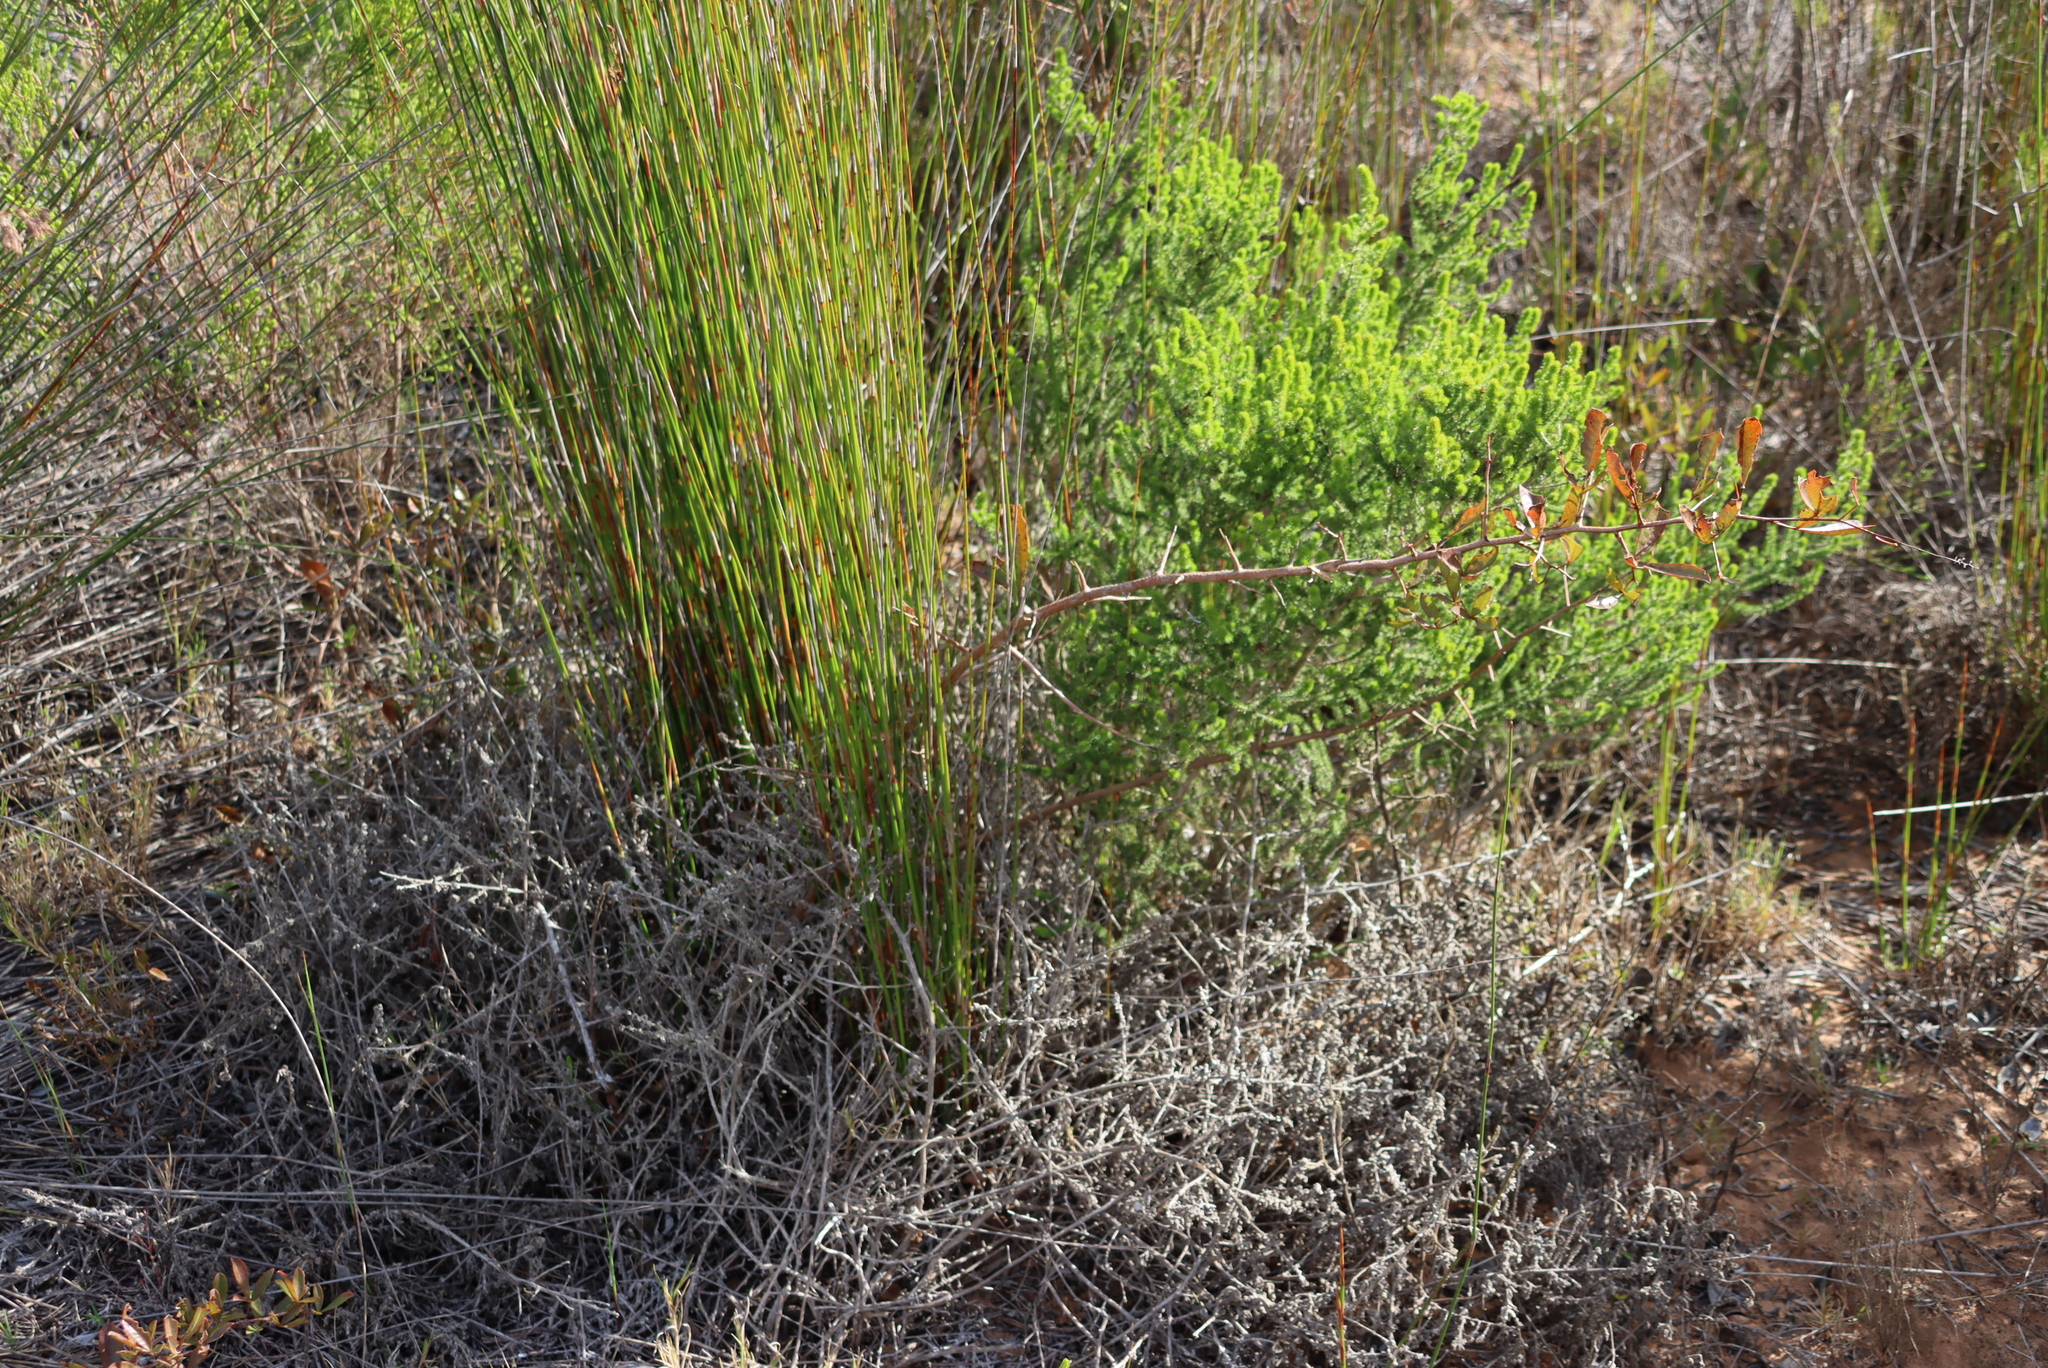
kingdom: Plantae
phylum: Tracheophyta
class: Magnoliopsida
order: Sapindales
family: Anacardiaceae
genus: Searsia
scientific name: Searsia laevigata
